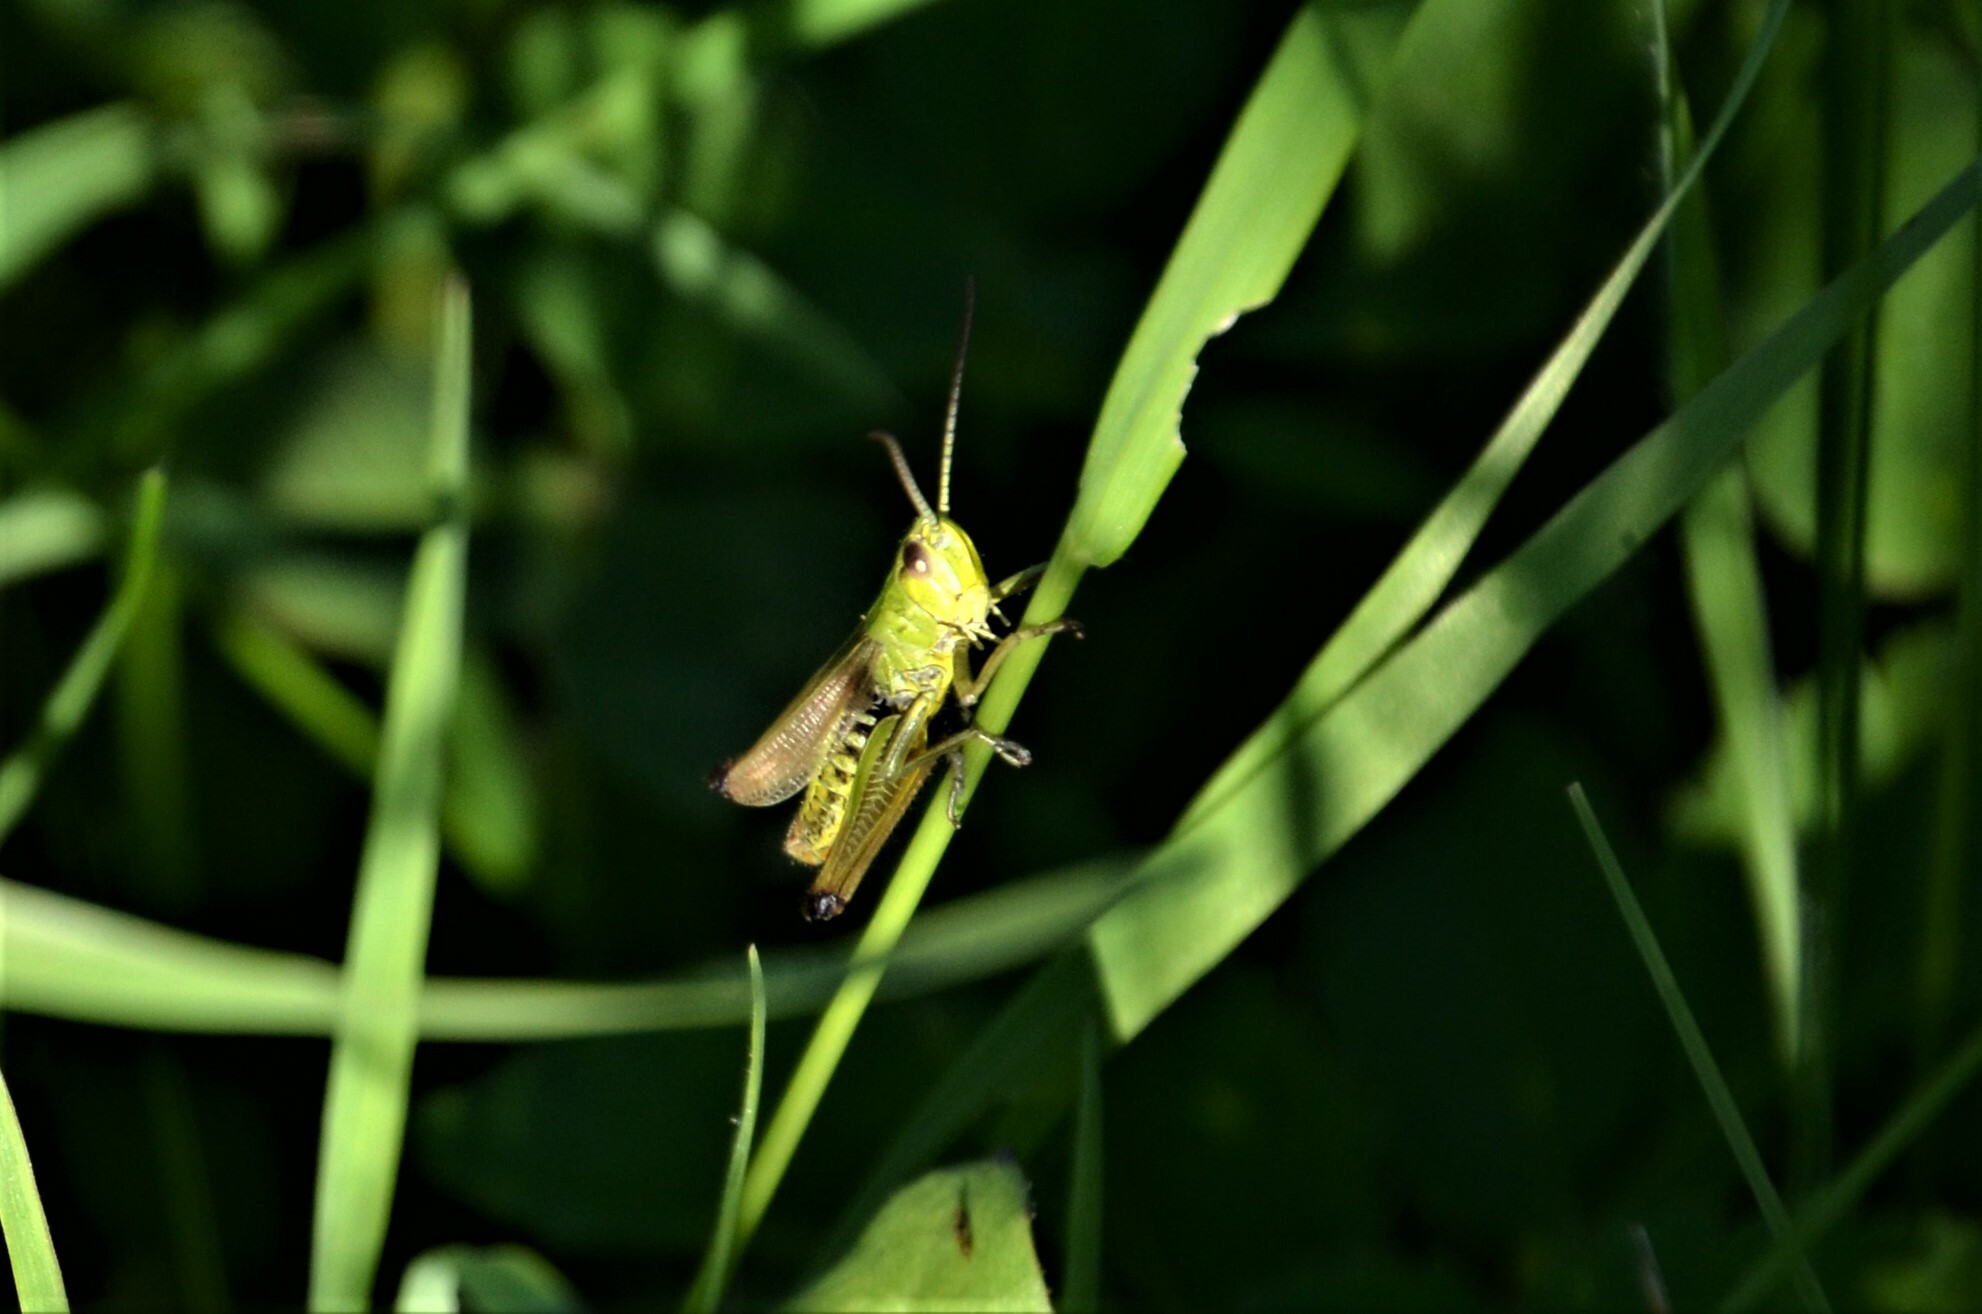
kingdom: Animalia
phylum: Arthropoda
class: Insecta
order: Orthoptera
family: Acrididae
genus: Pseudochorthippus
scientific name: Pseudochorthippus parallelus
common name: Meadow grasshopper
